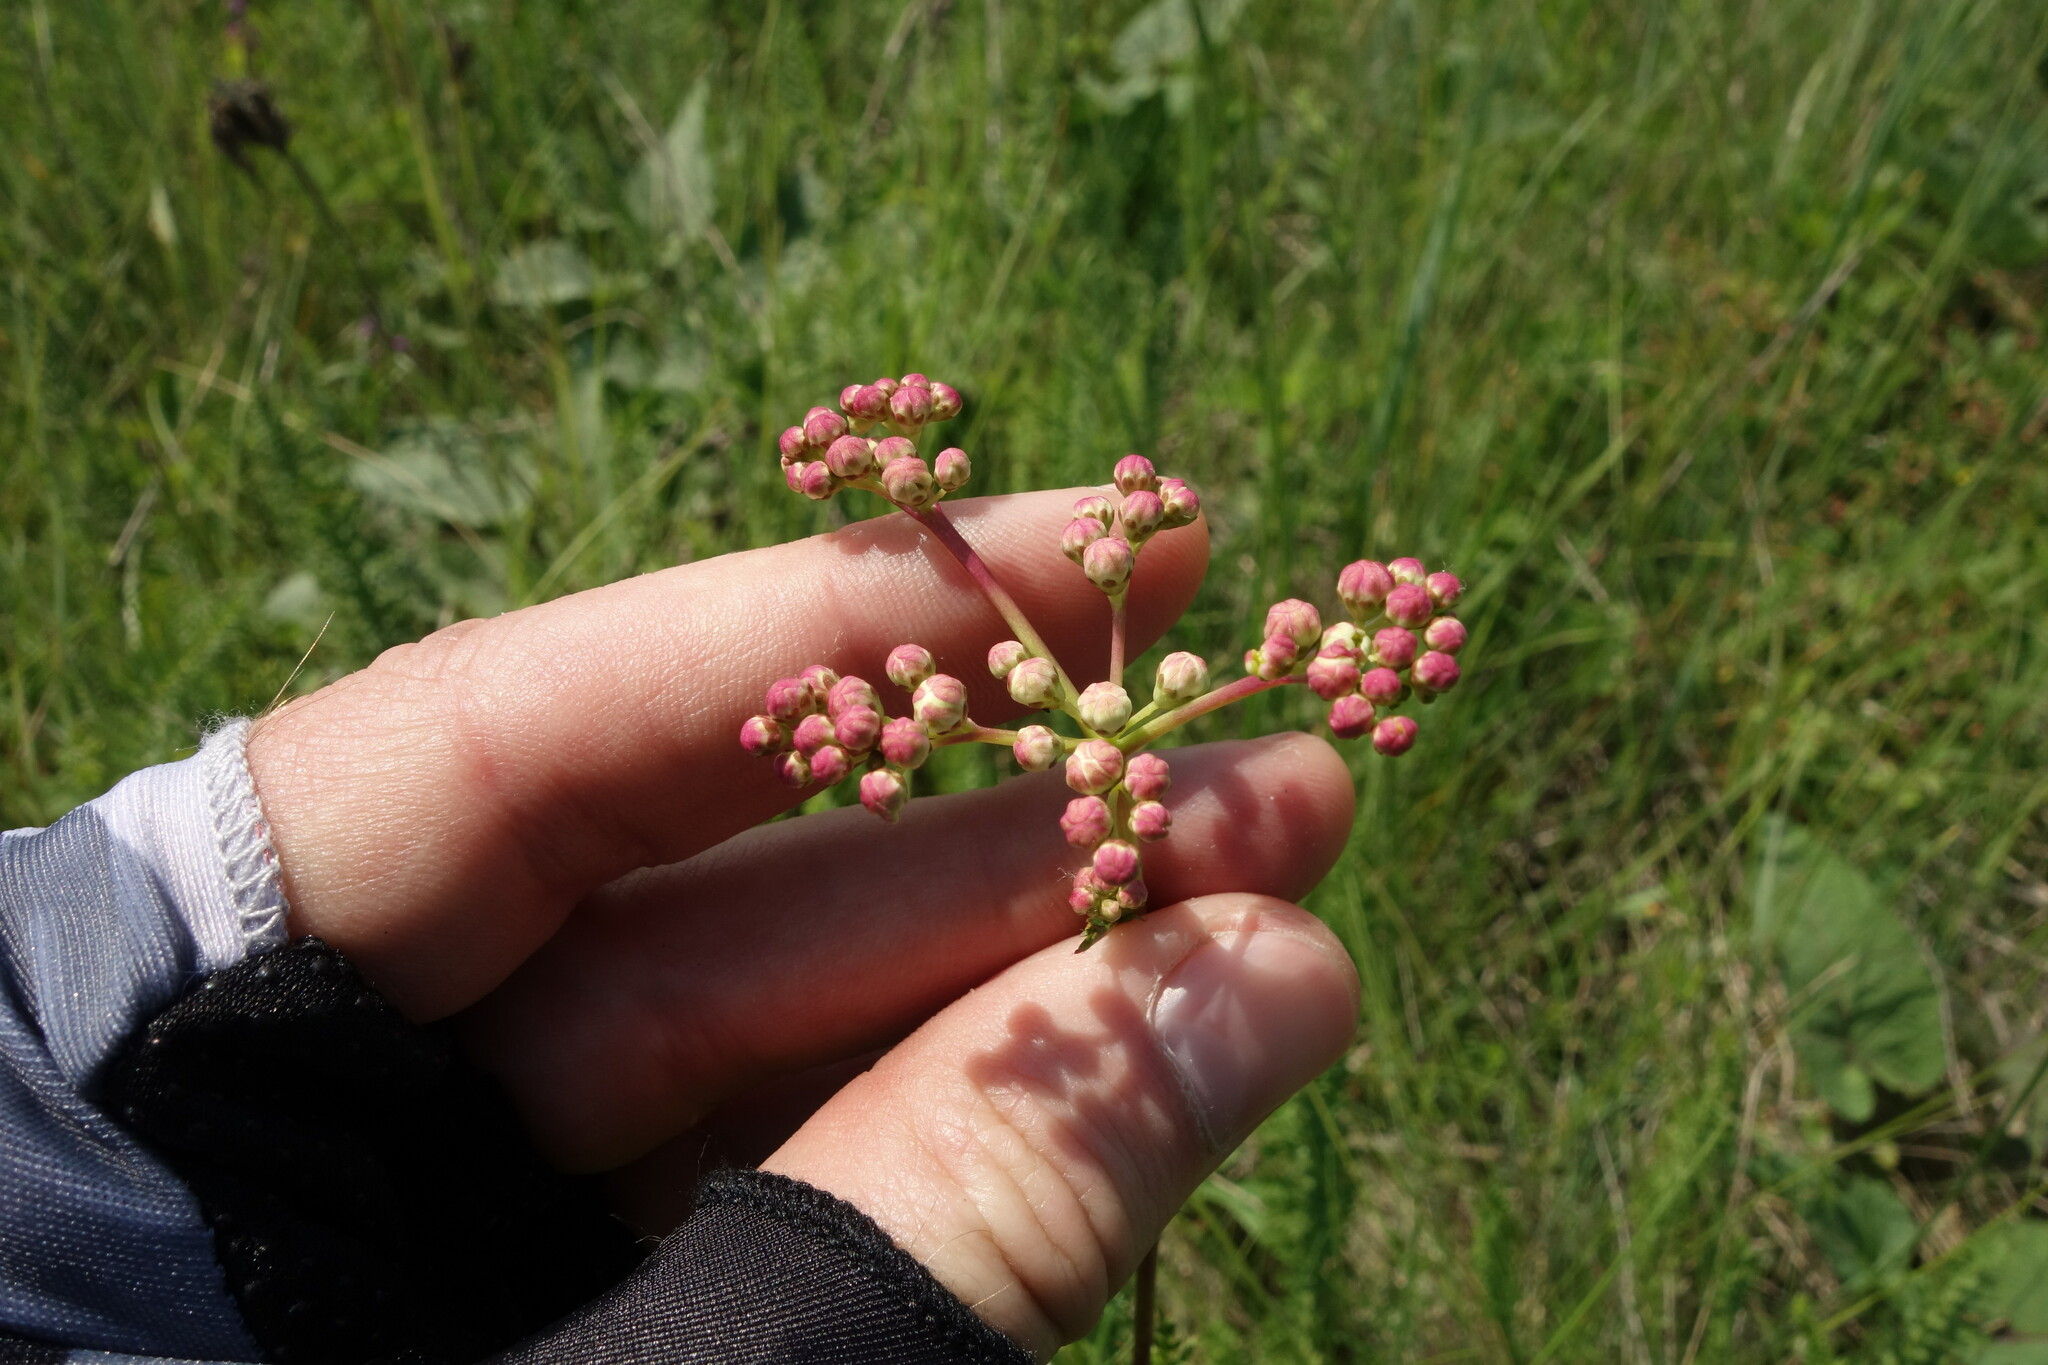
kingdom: Plantae
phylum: Tracheophyta
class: Magnoliopsida
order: Rosales
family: Rosaceae
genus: Filipendula
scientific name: Filipendula vulgaris
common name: Dropwort
